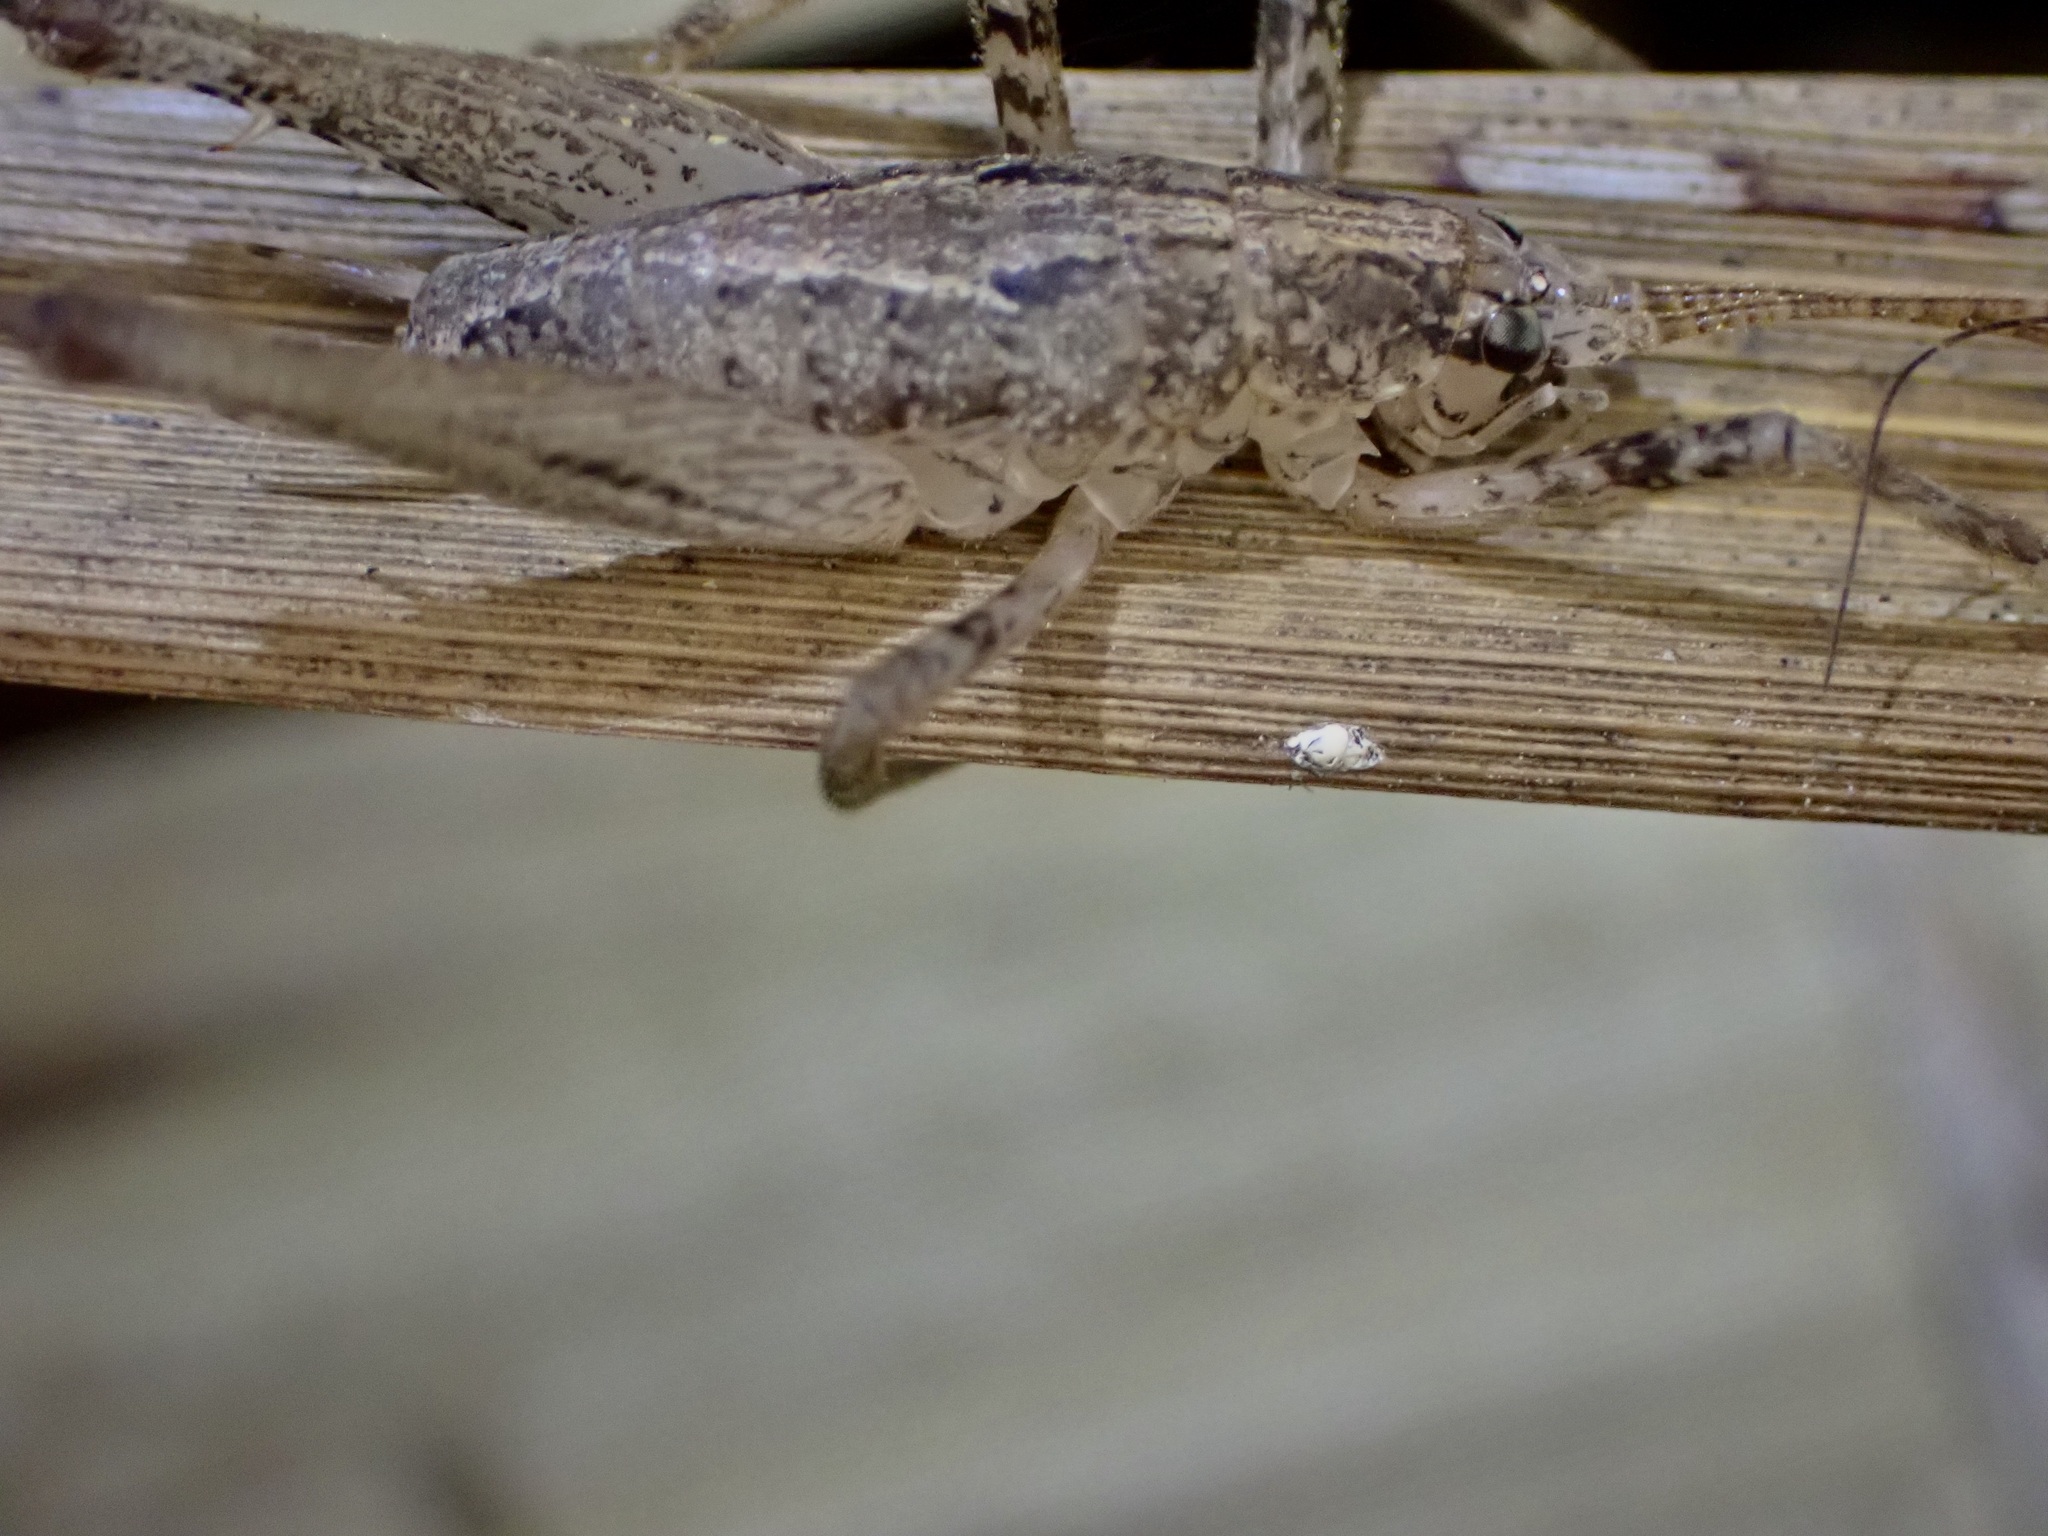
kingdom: Animalia
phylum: Arthropoda
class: Insecta
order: Orthoptera
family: Rhaphidophoridae
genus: Isoplectron
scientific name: Isoplectron armatum
